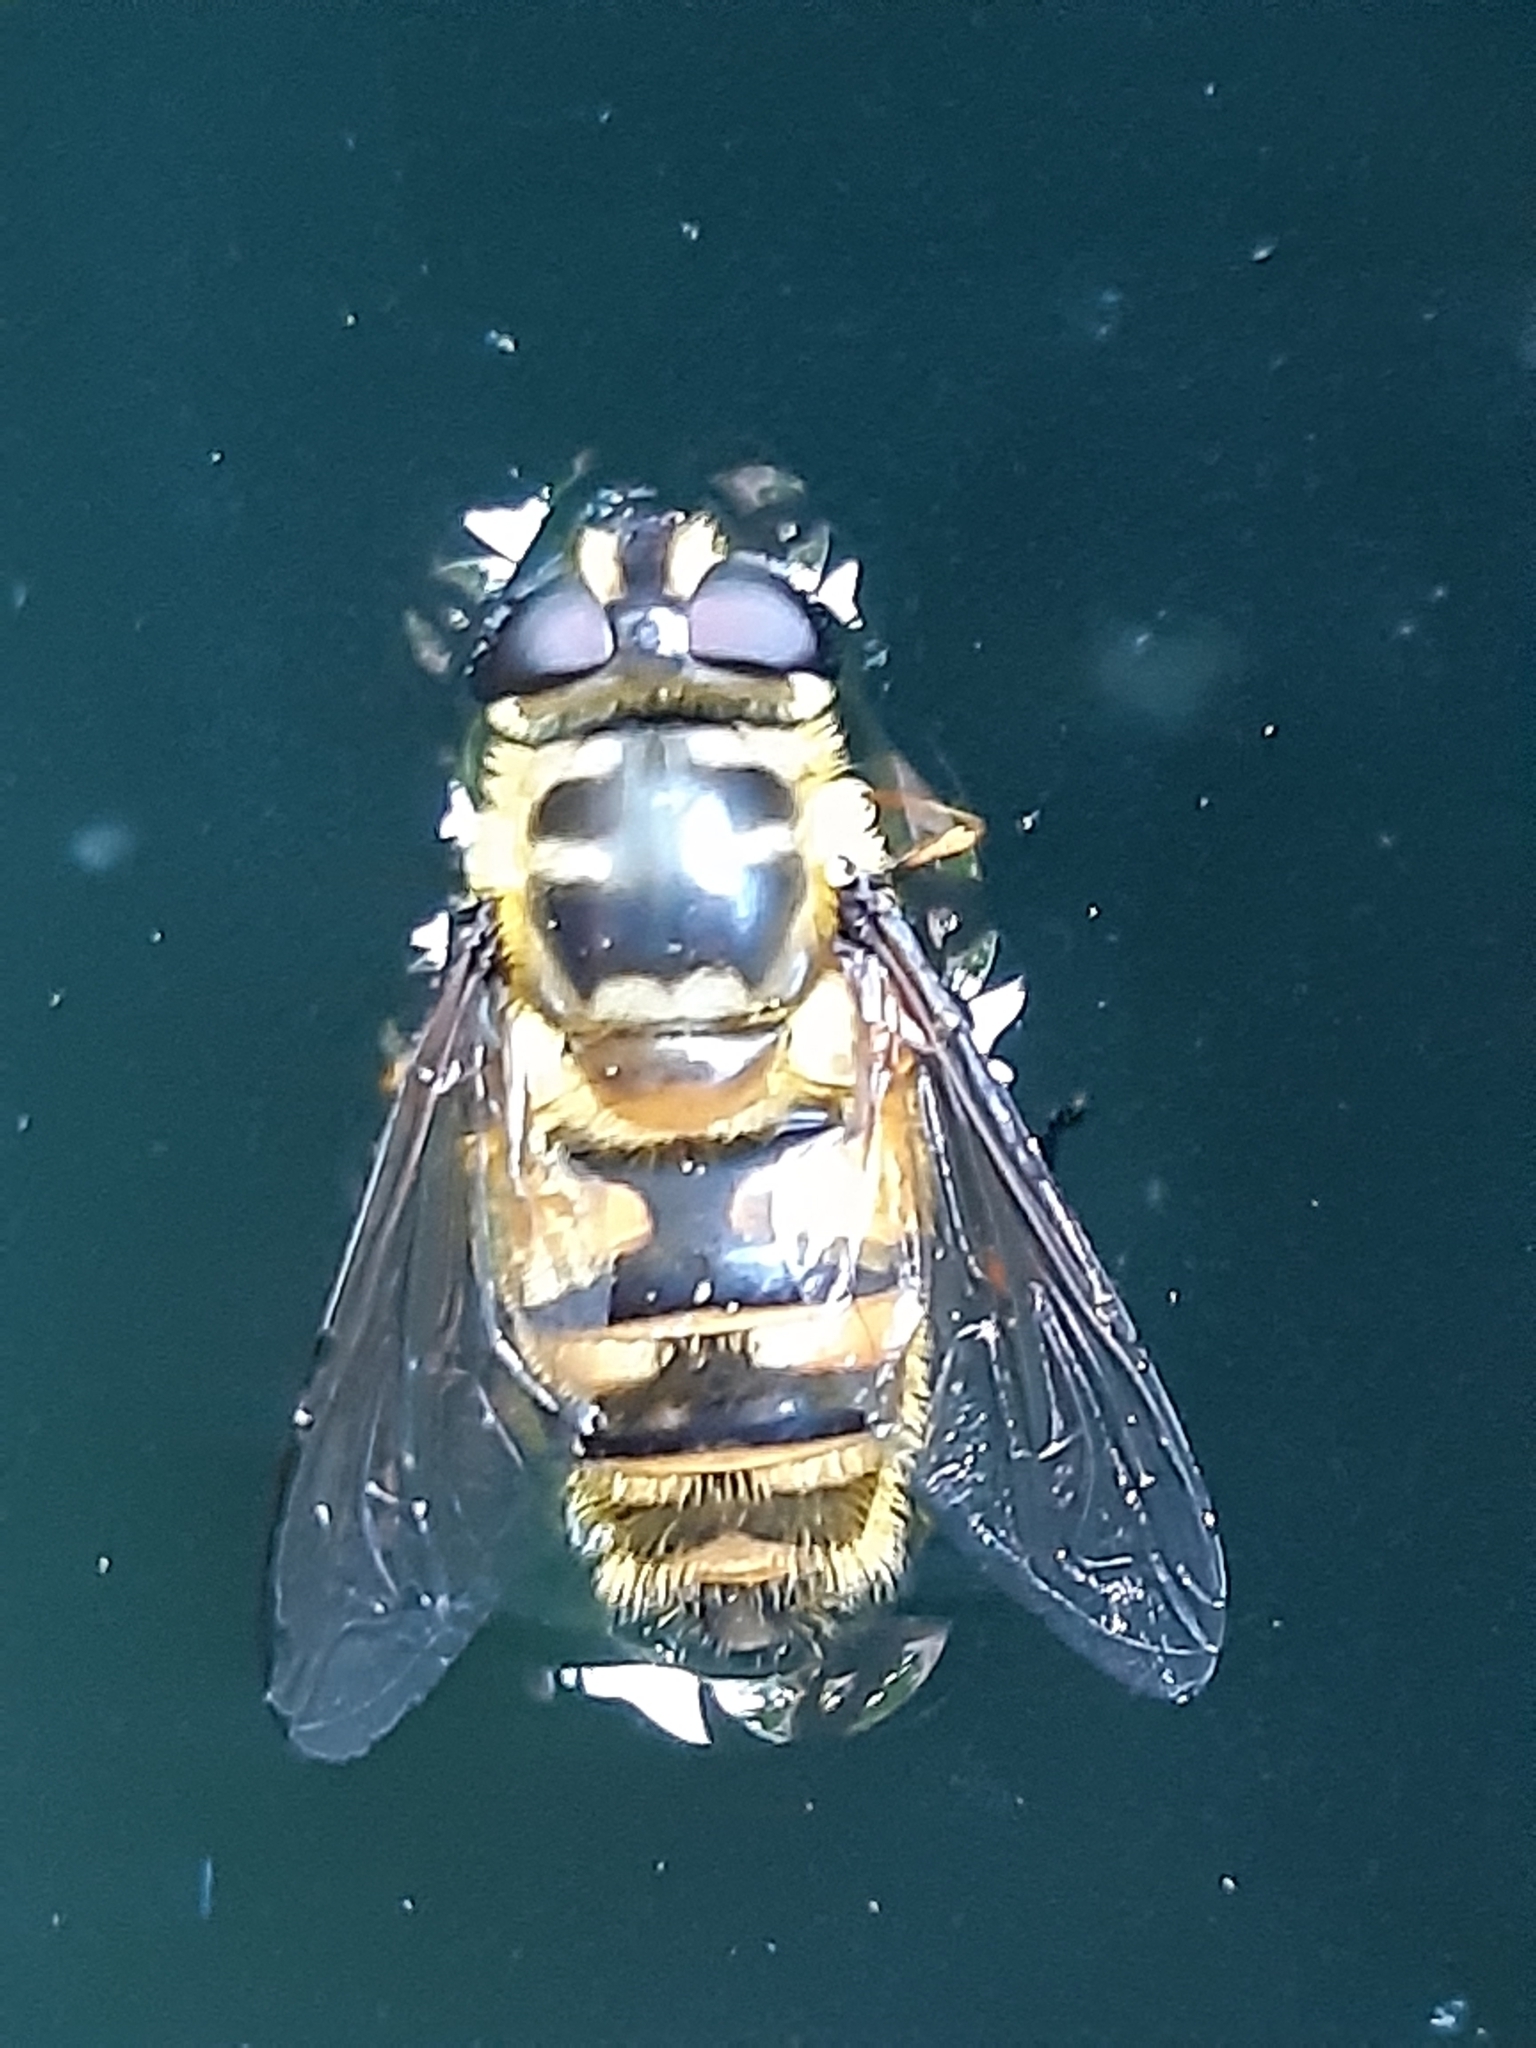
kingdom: Animalia
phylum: Arthropoda
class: Insecta
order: Diptera
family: Syrphidae
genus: Myathropa
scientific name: Myathropa florea
